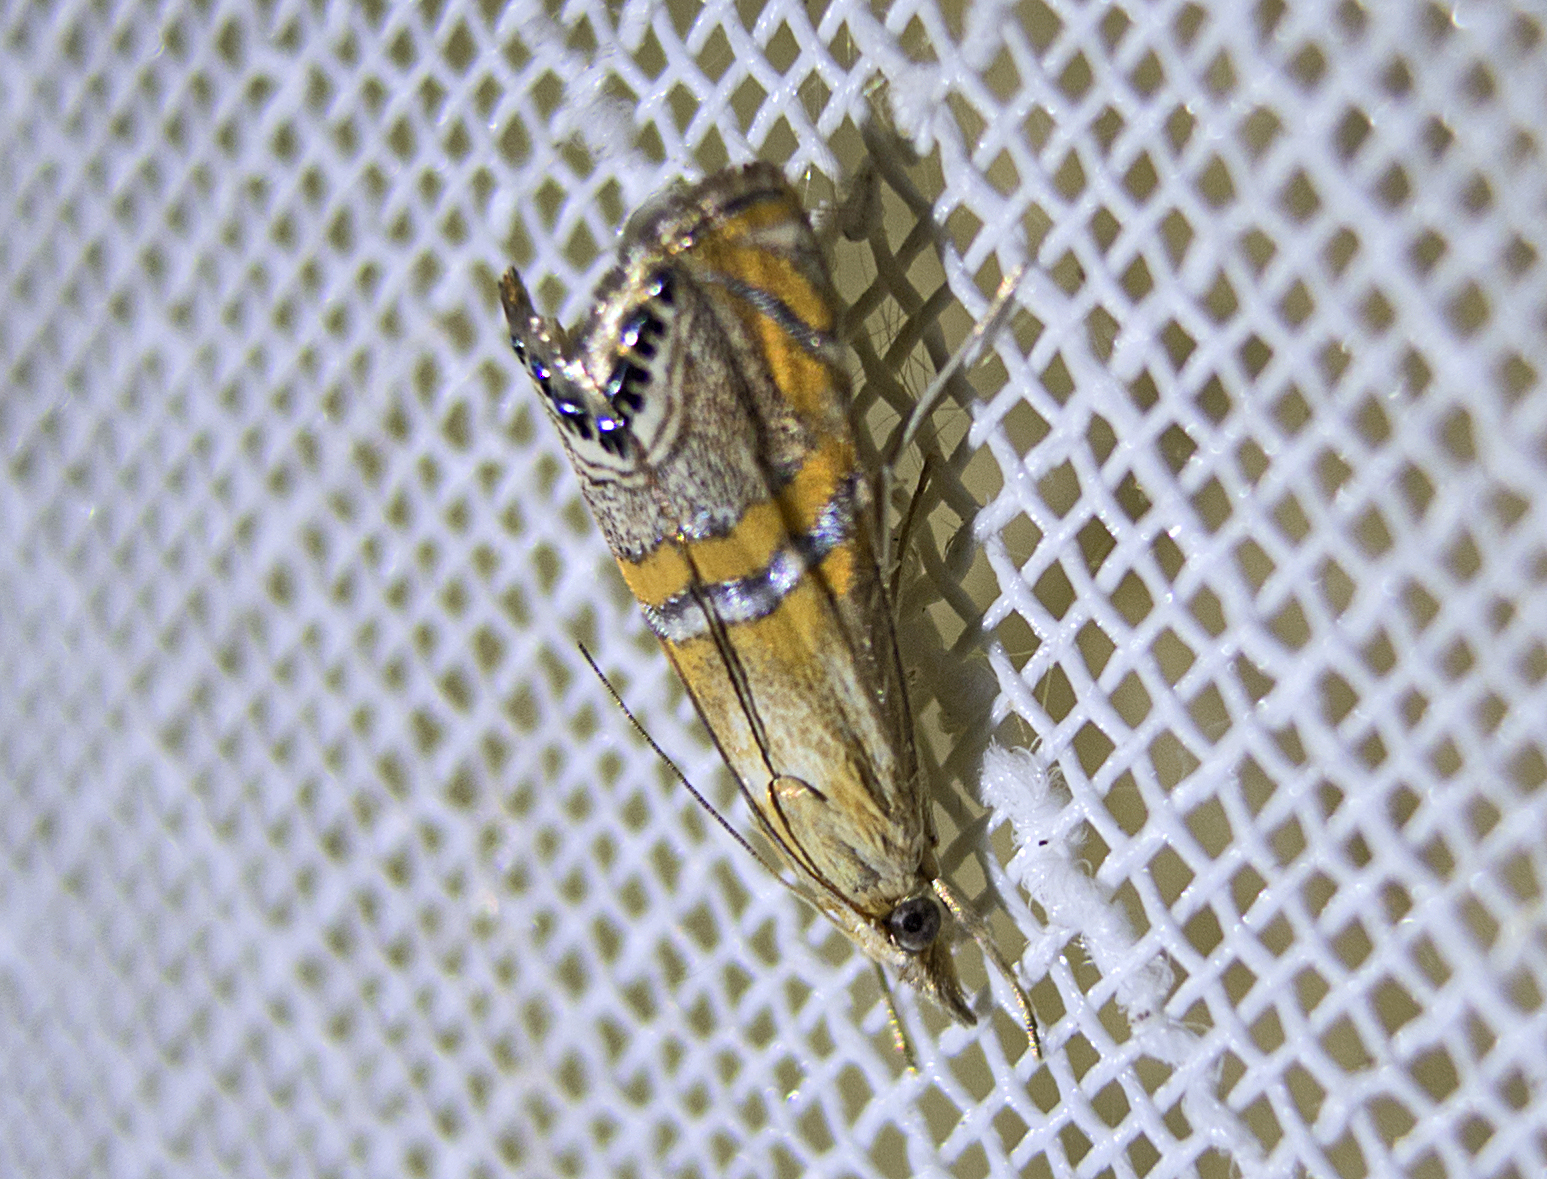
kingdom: Animalia
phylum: Arthropoda
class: Insecta
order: Lepidoptera
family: Crambidae
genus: Euchromius
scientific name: Euchromius bella
